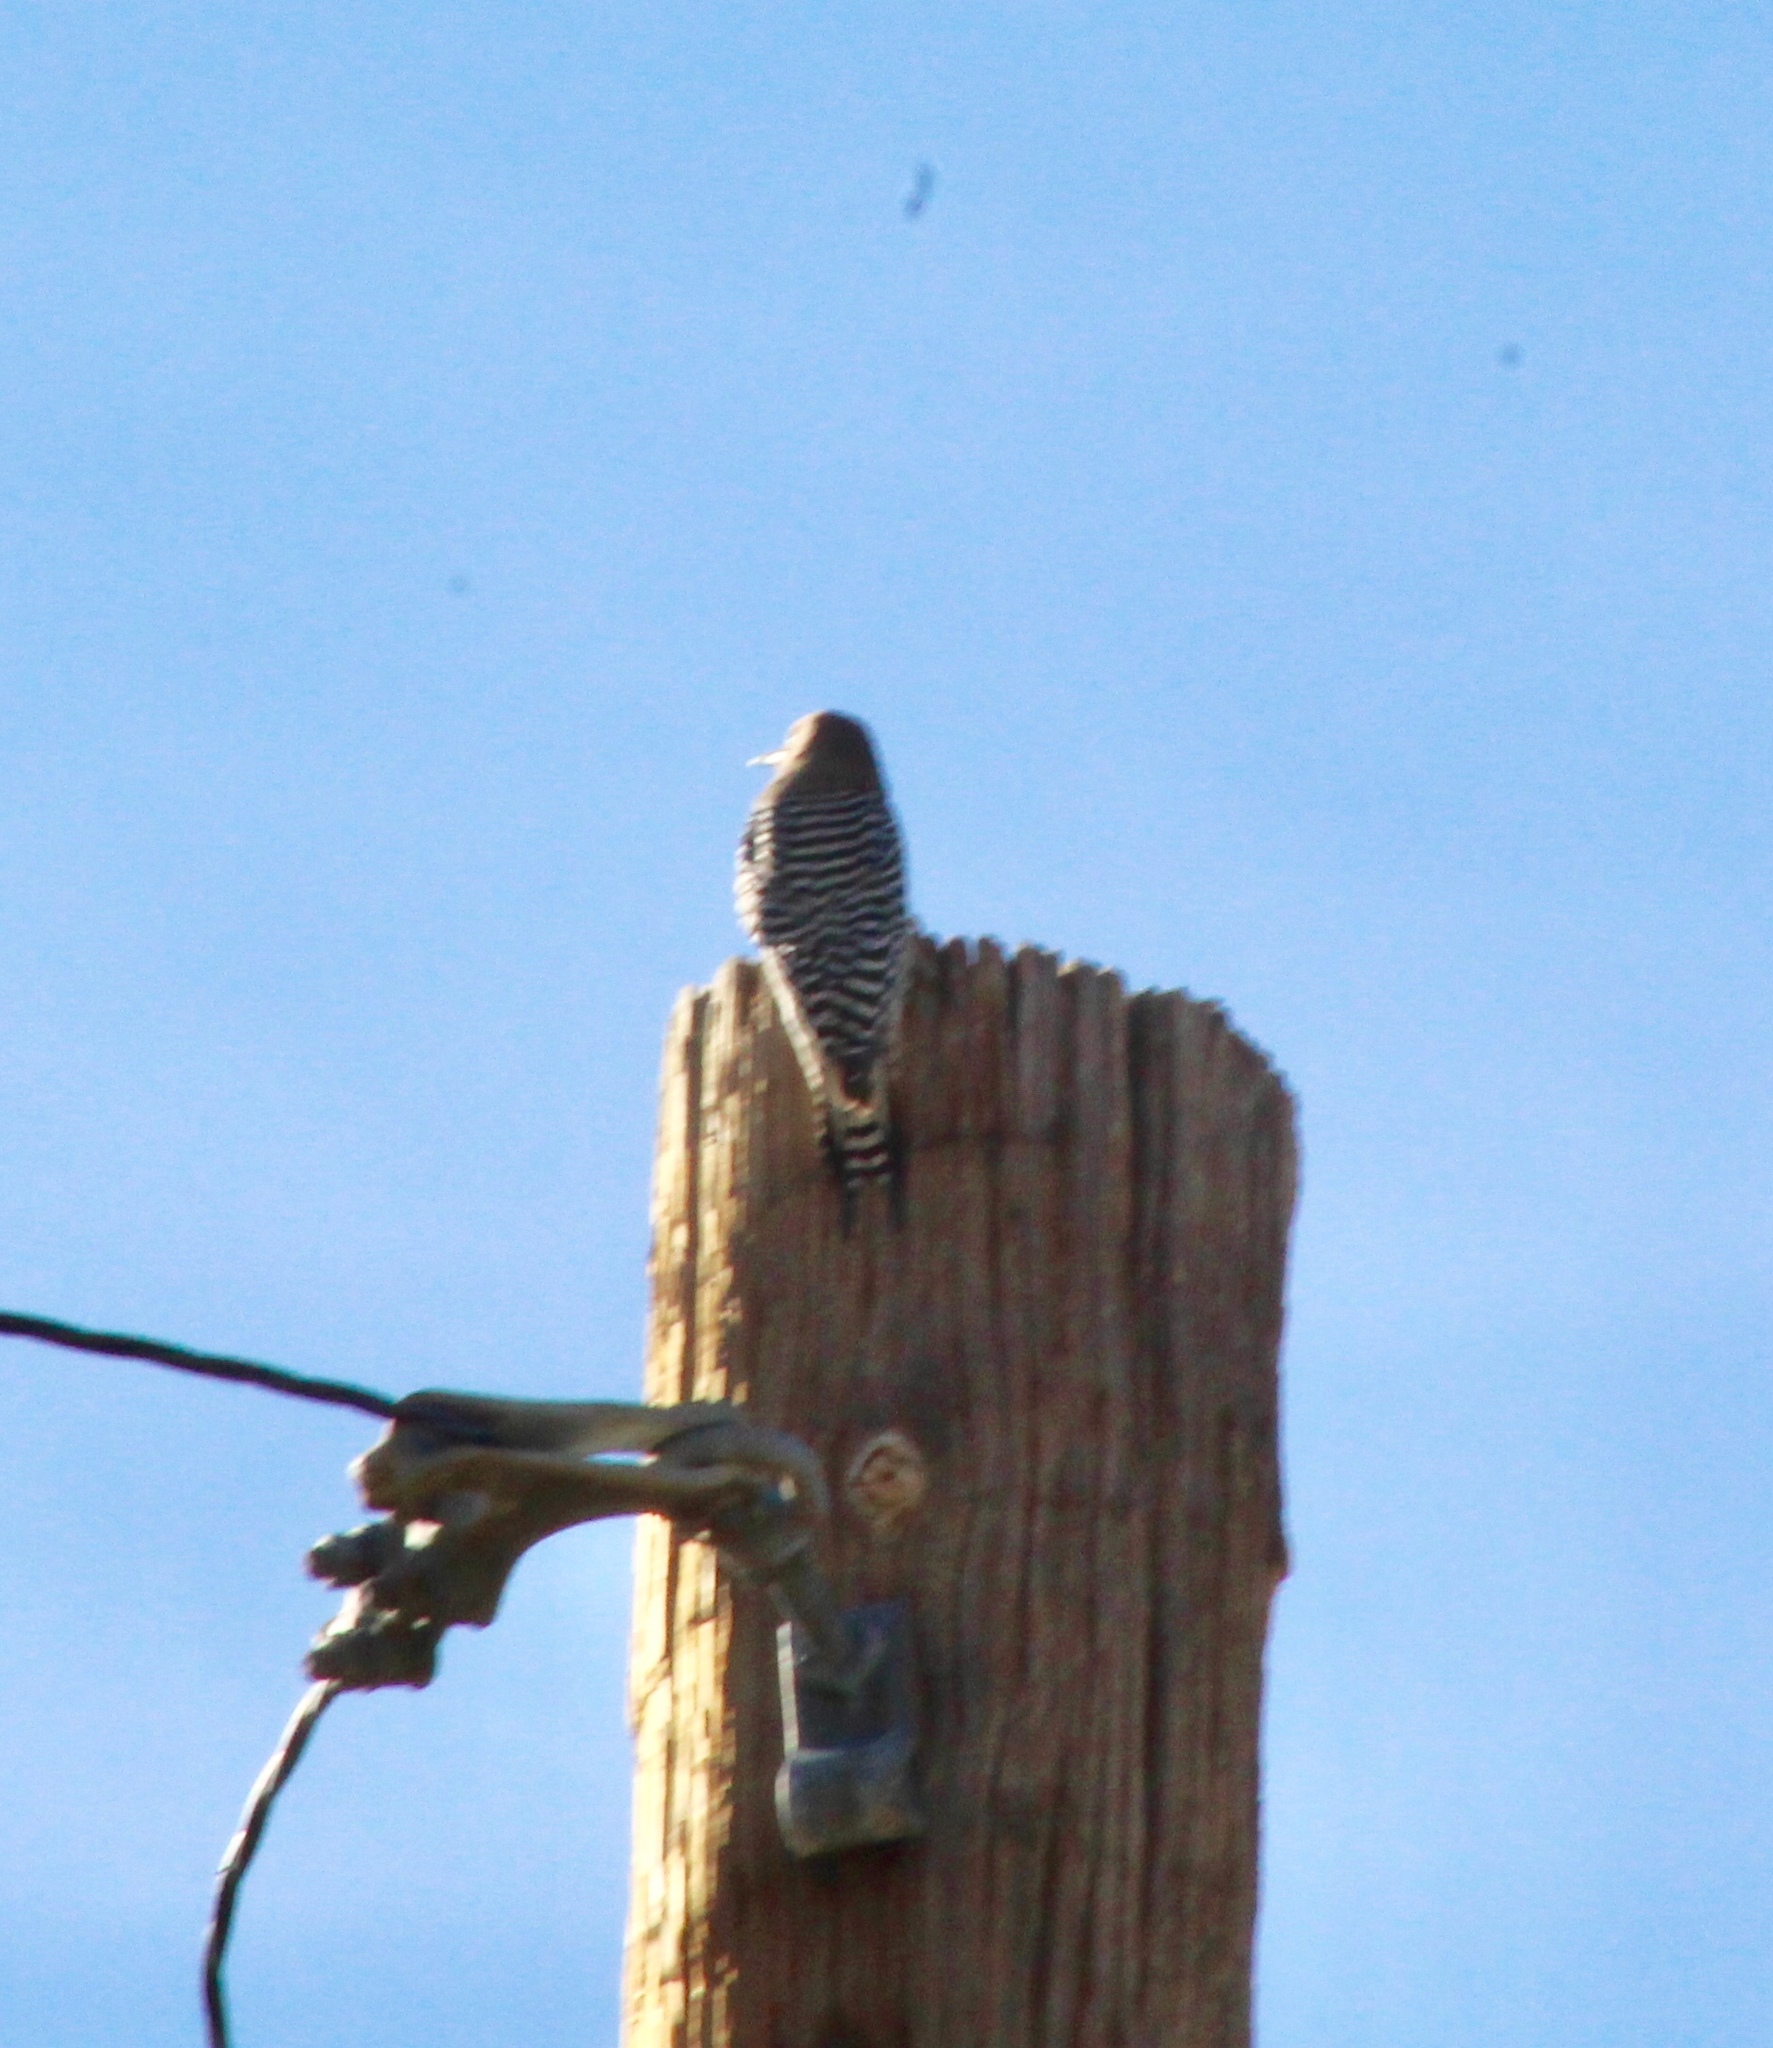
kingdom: Animalia
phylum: Chordata
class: Aves
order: Piciformes
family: Picidae
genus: Melanerpes
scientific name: Melanerpes uropygialis
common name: Gila woodpecker
